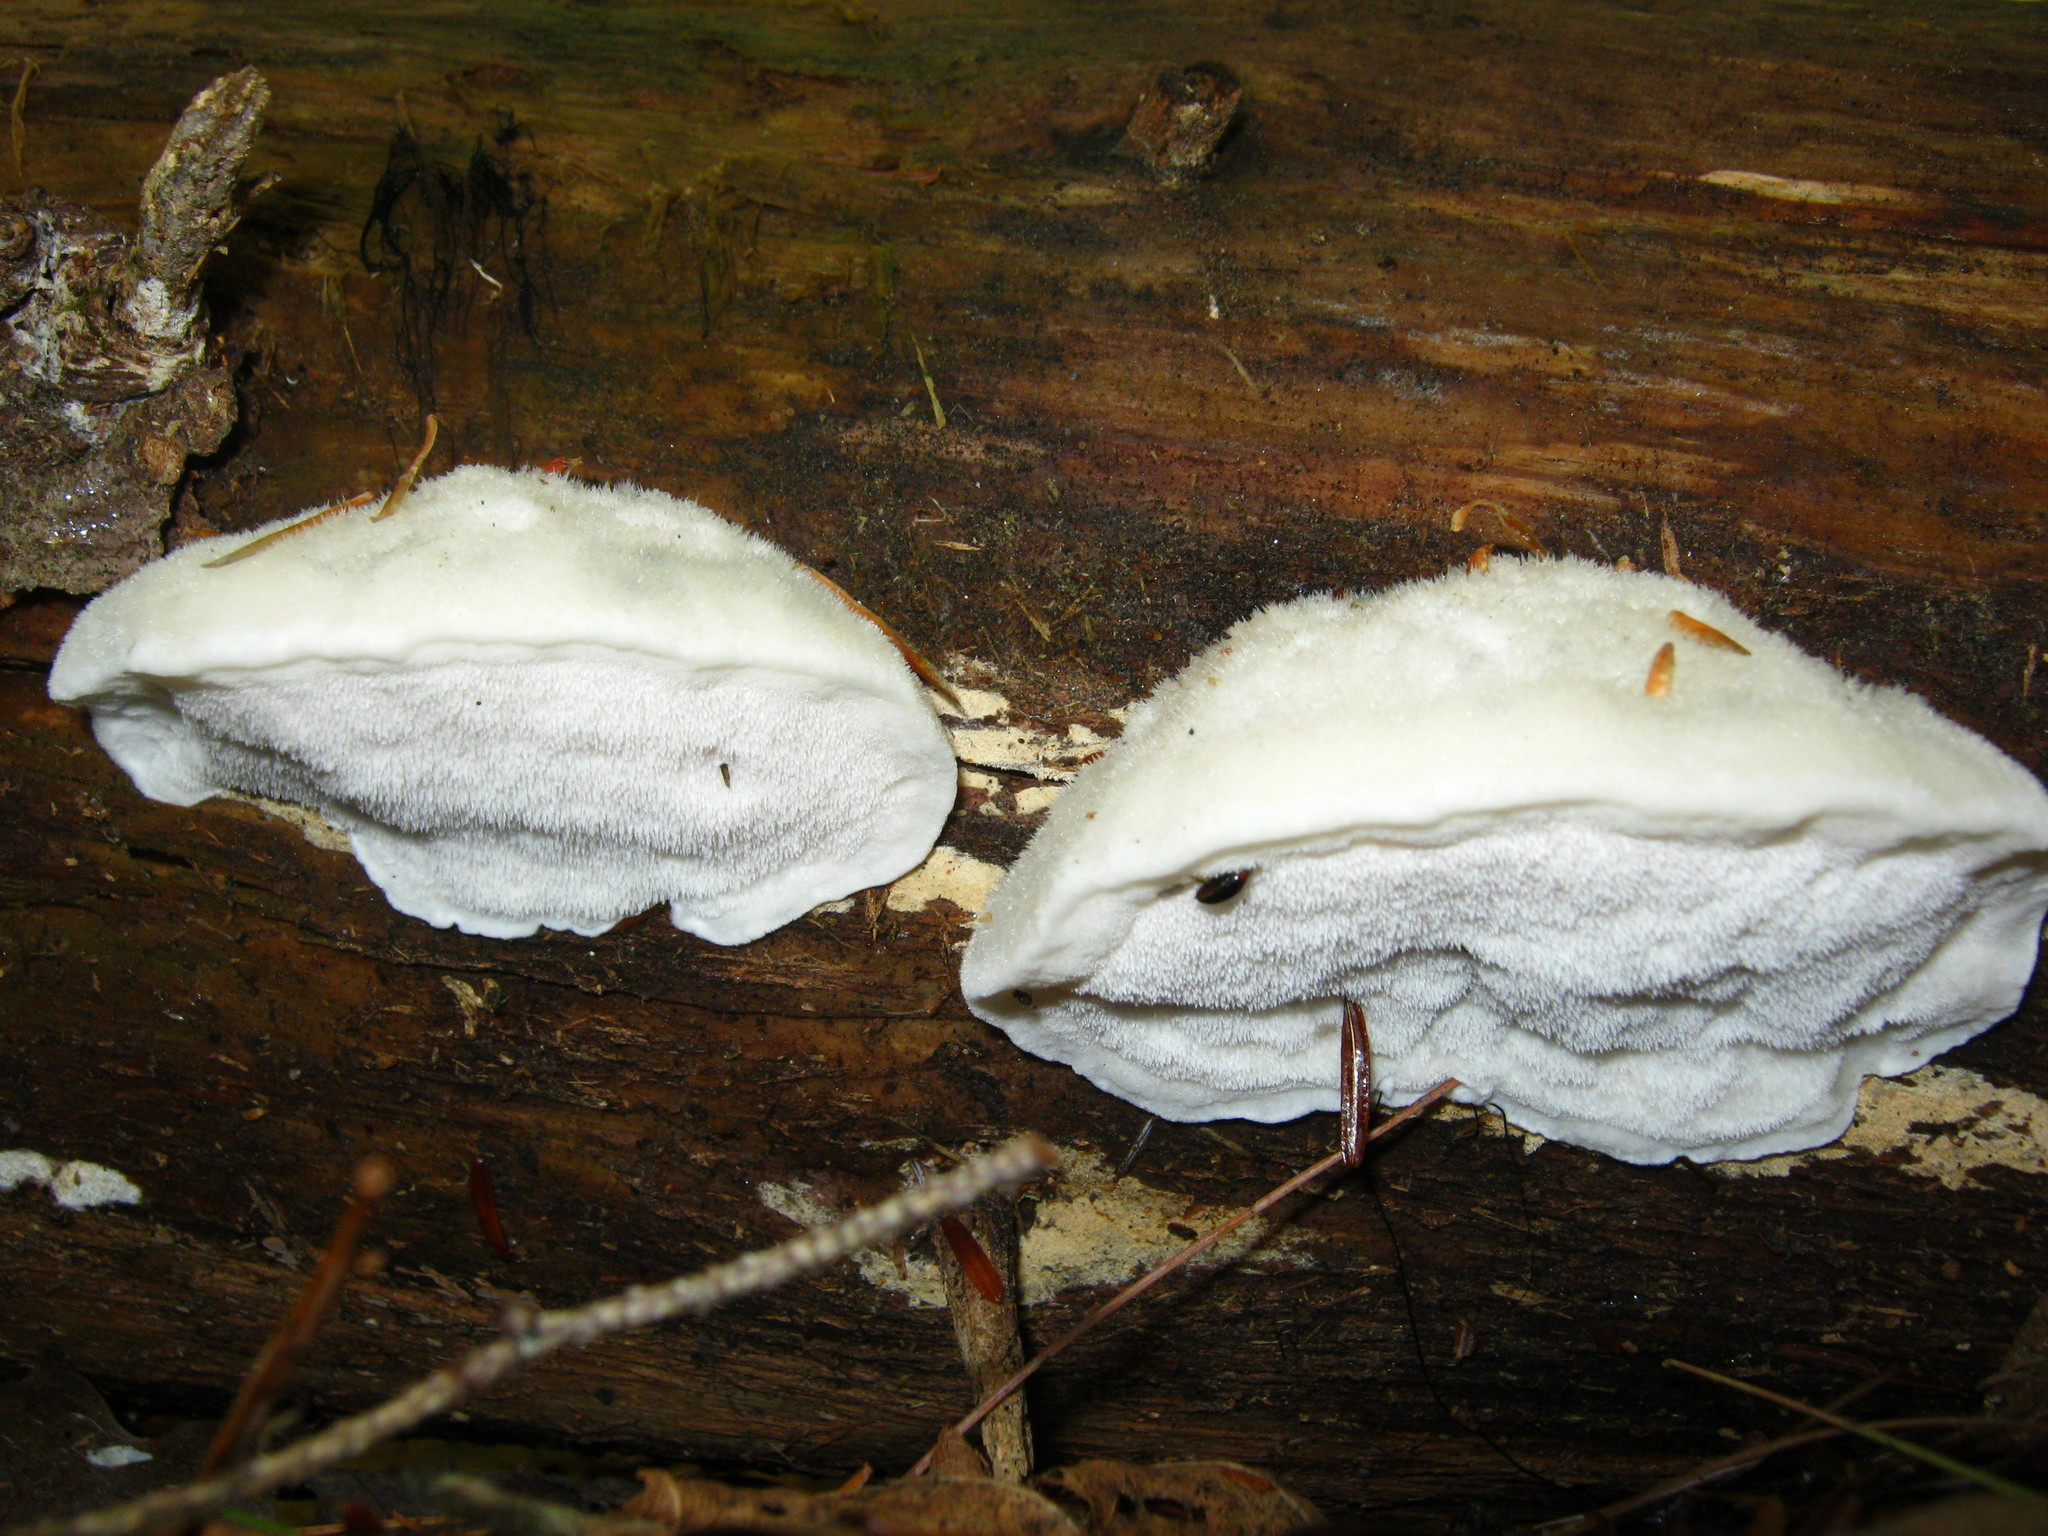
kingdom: Fungi
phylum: Basidiomycota
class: Agaricomycetes
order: Polyporales
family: Polyporaceae
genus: Cyanosporus
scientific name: Cyanosporus livens
